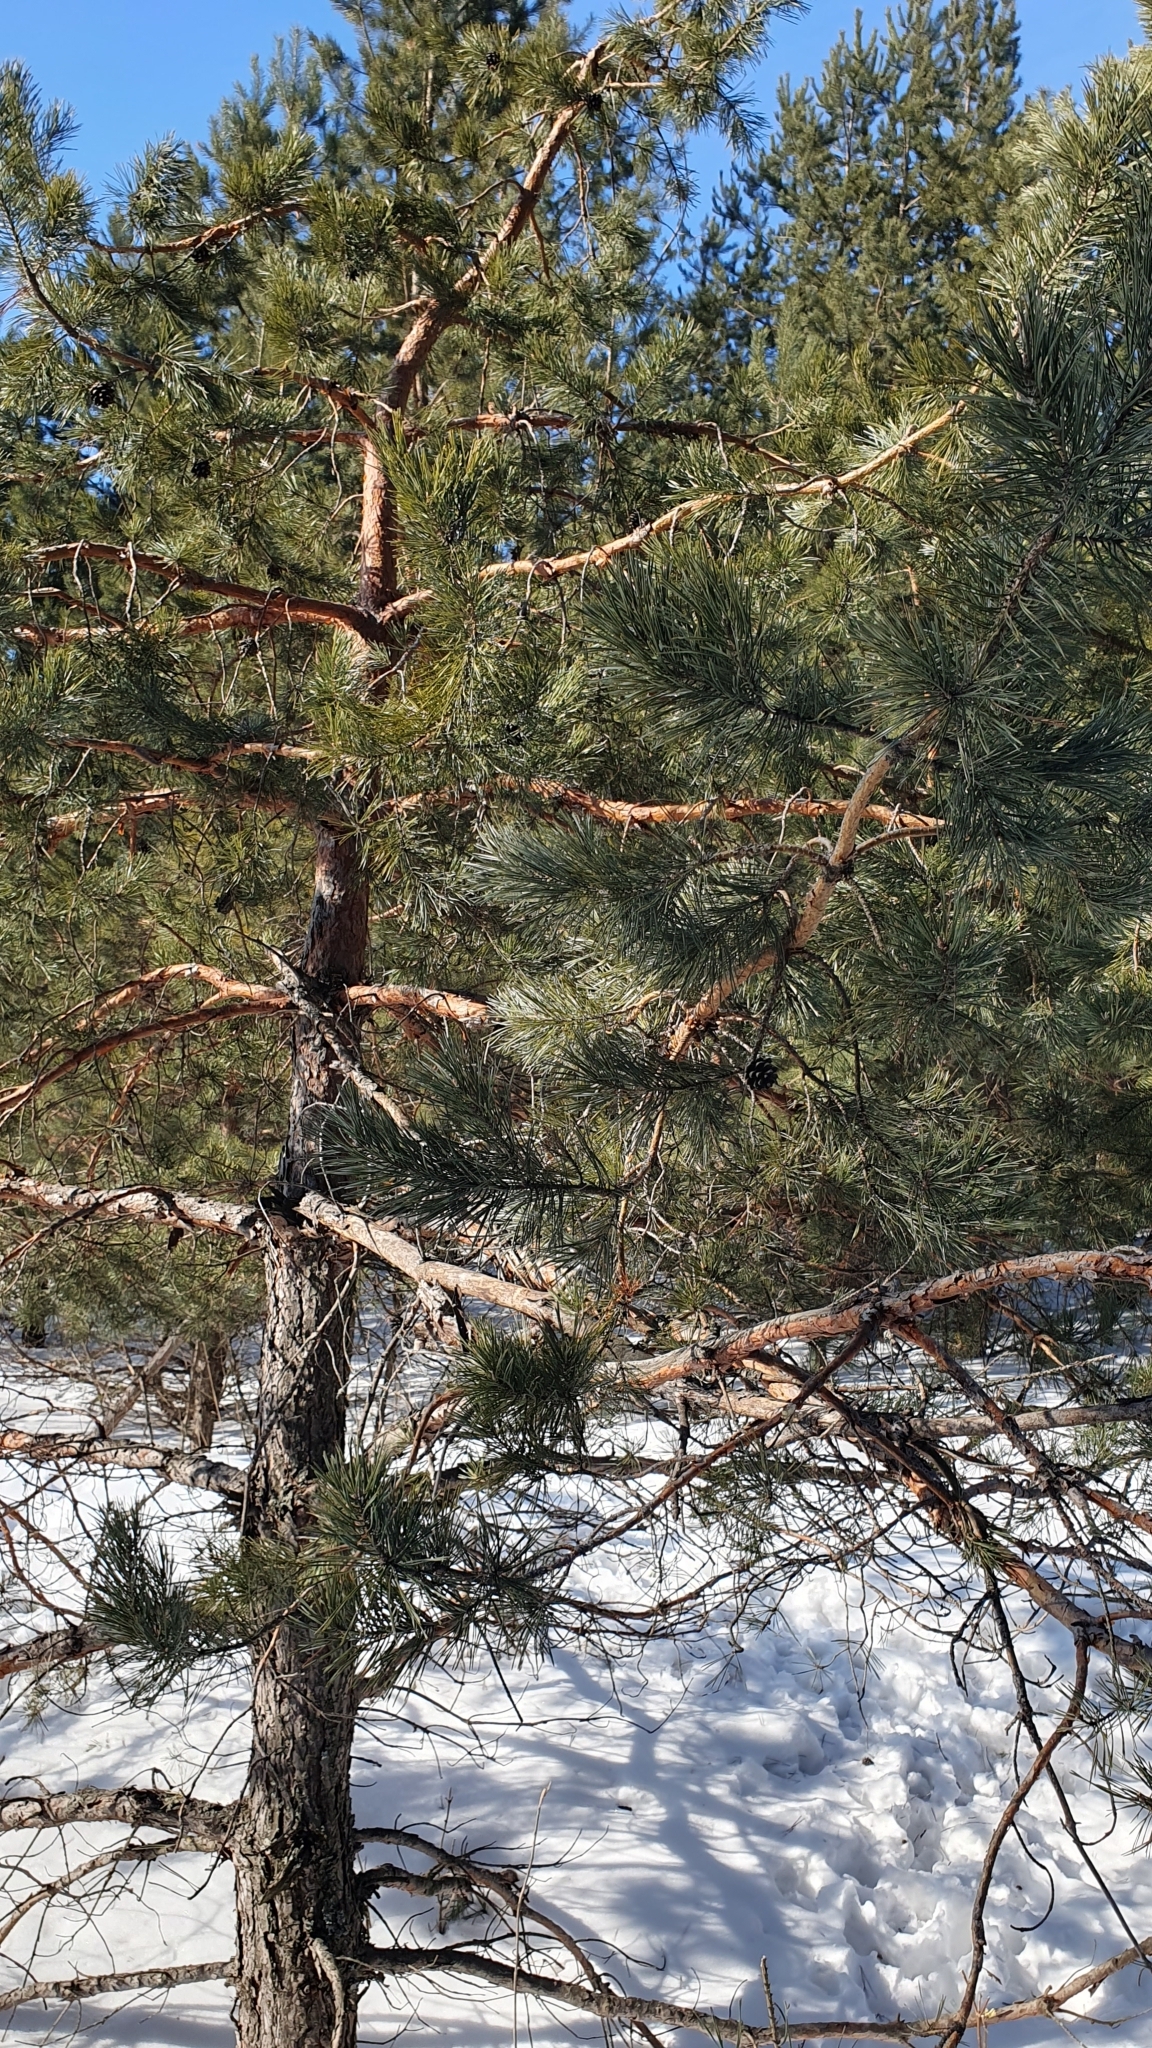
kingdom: Plantae
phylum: Tracheophyta
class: Pinopsida
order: Pinales
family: Pinaceae
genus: Pinus
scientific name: Pinus sylvestris
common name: Scots pine
